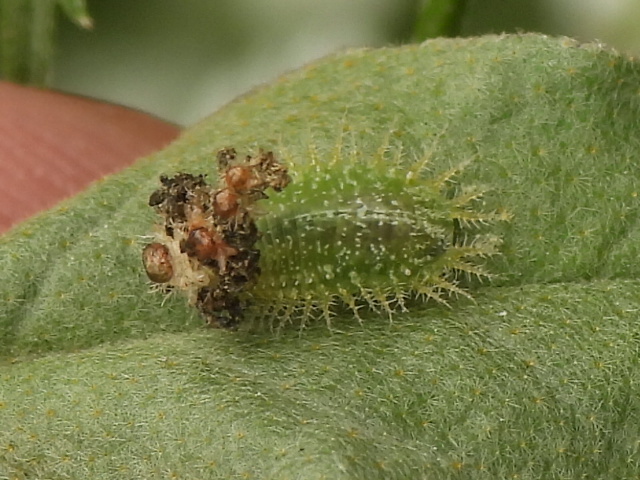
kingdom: Animalia
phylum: Arthropoda
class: Insecta
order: Coleoptera
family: Chrysomelidae
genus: Gratiana
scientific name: Gratiana pallidula
